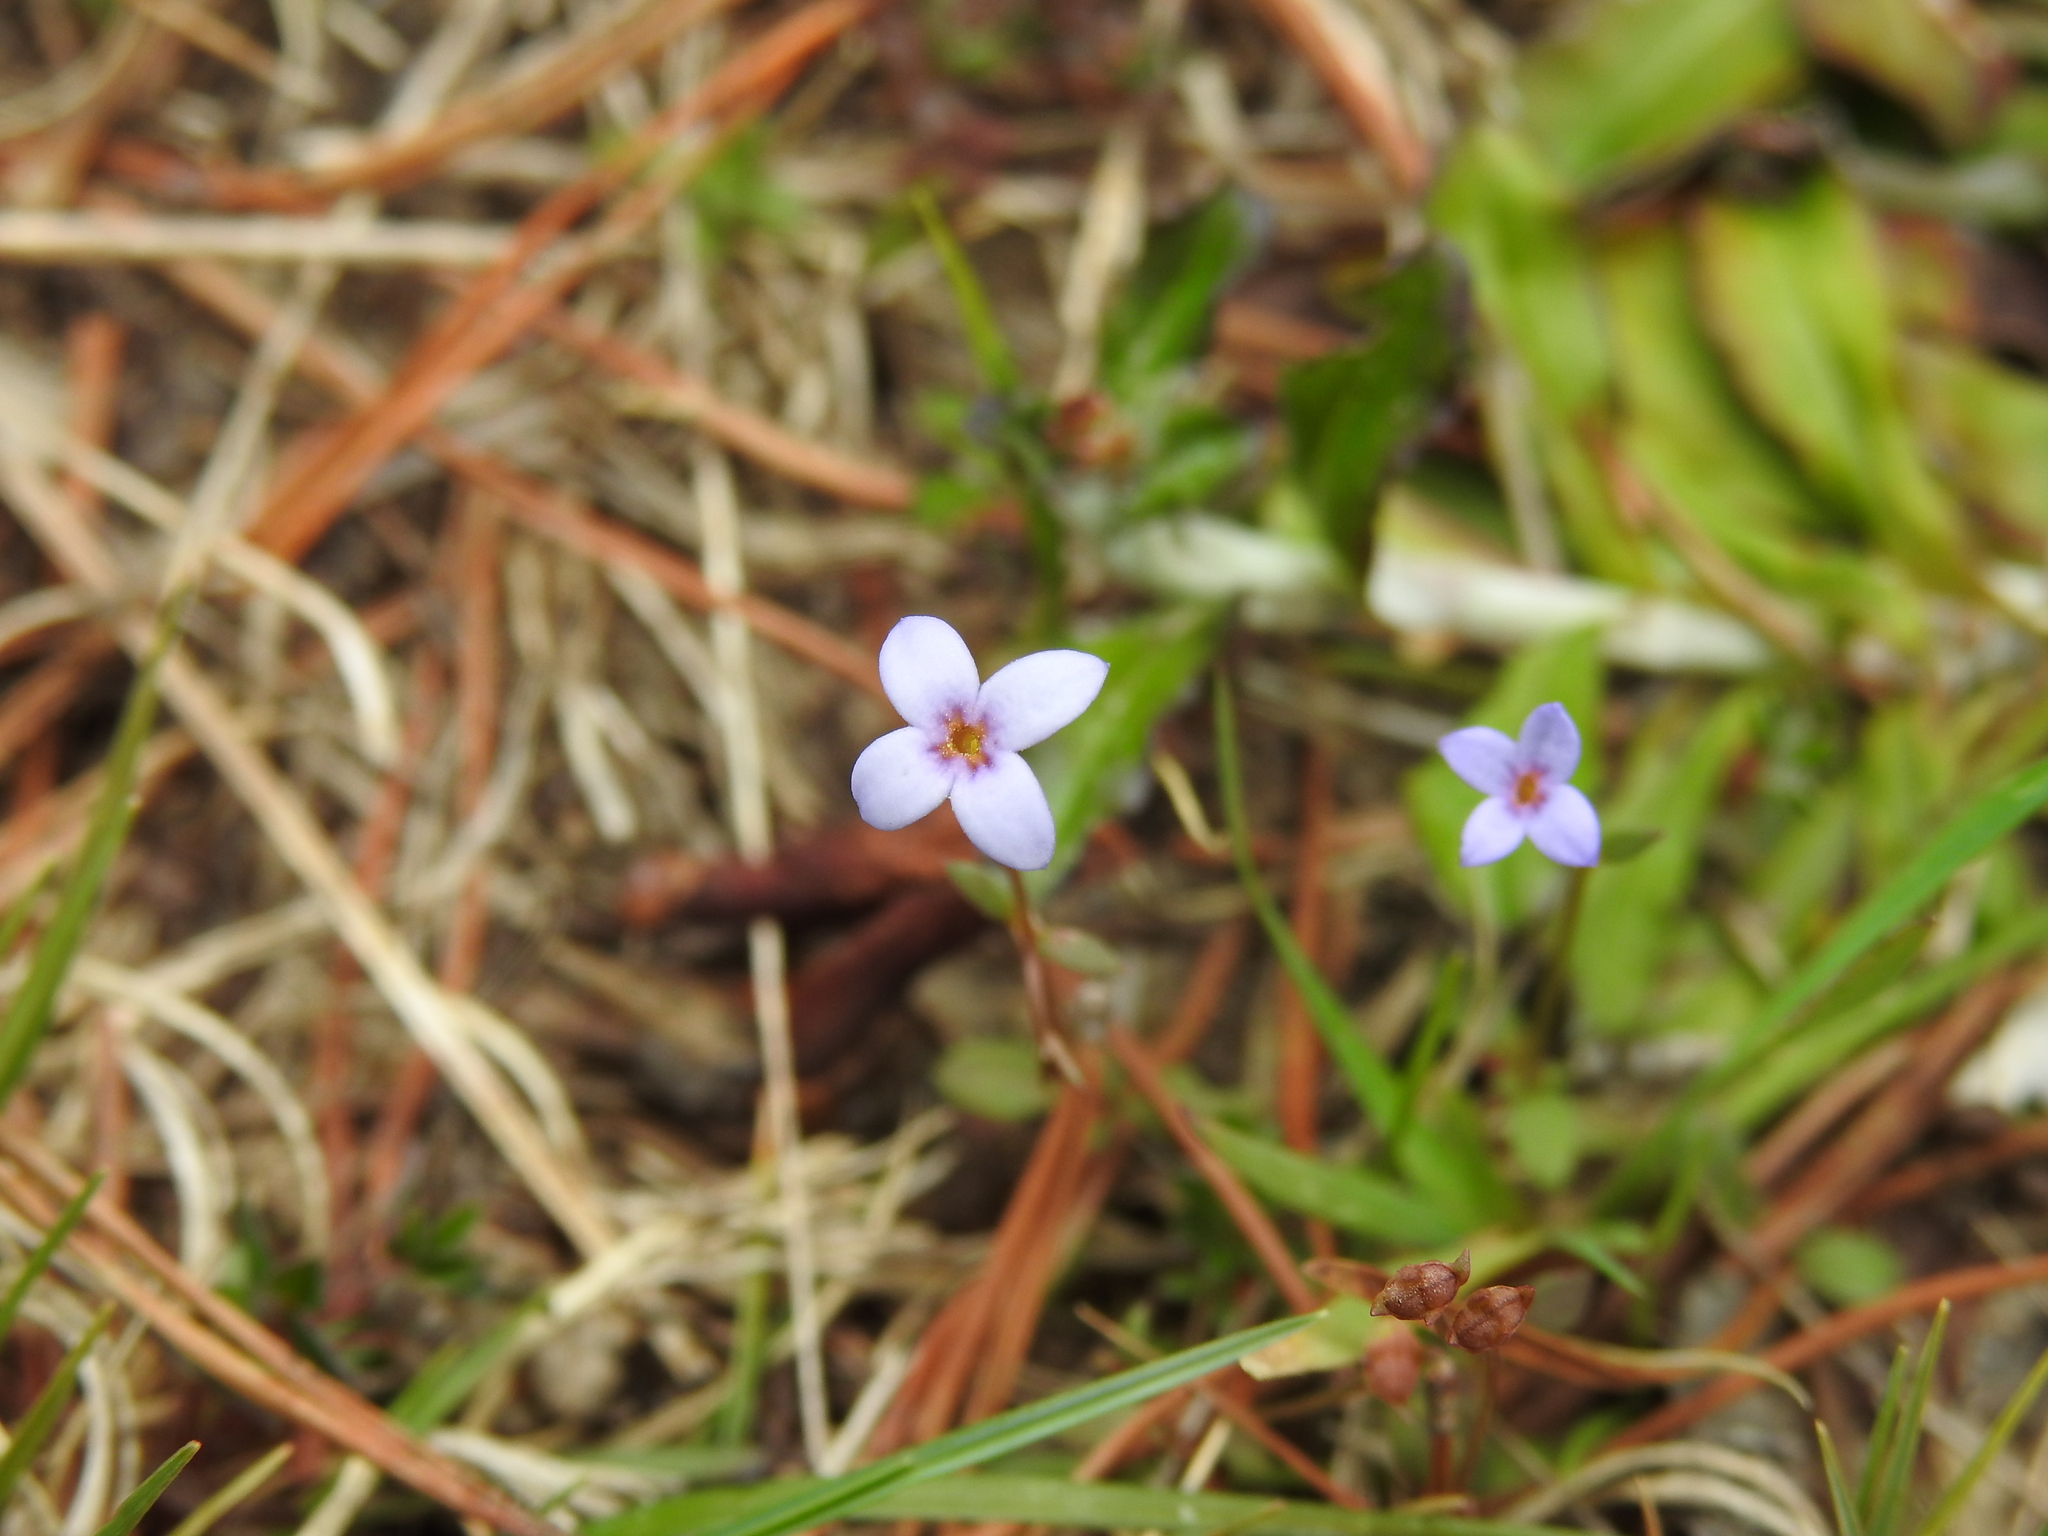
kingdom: Plantae
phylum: Tracheophyta
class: Magnoliopsida
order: Gentianales
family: Rubiaceae
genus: Houstonia
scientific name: Houstonia pusilla
